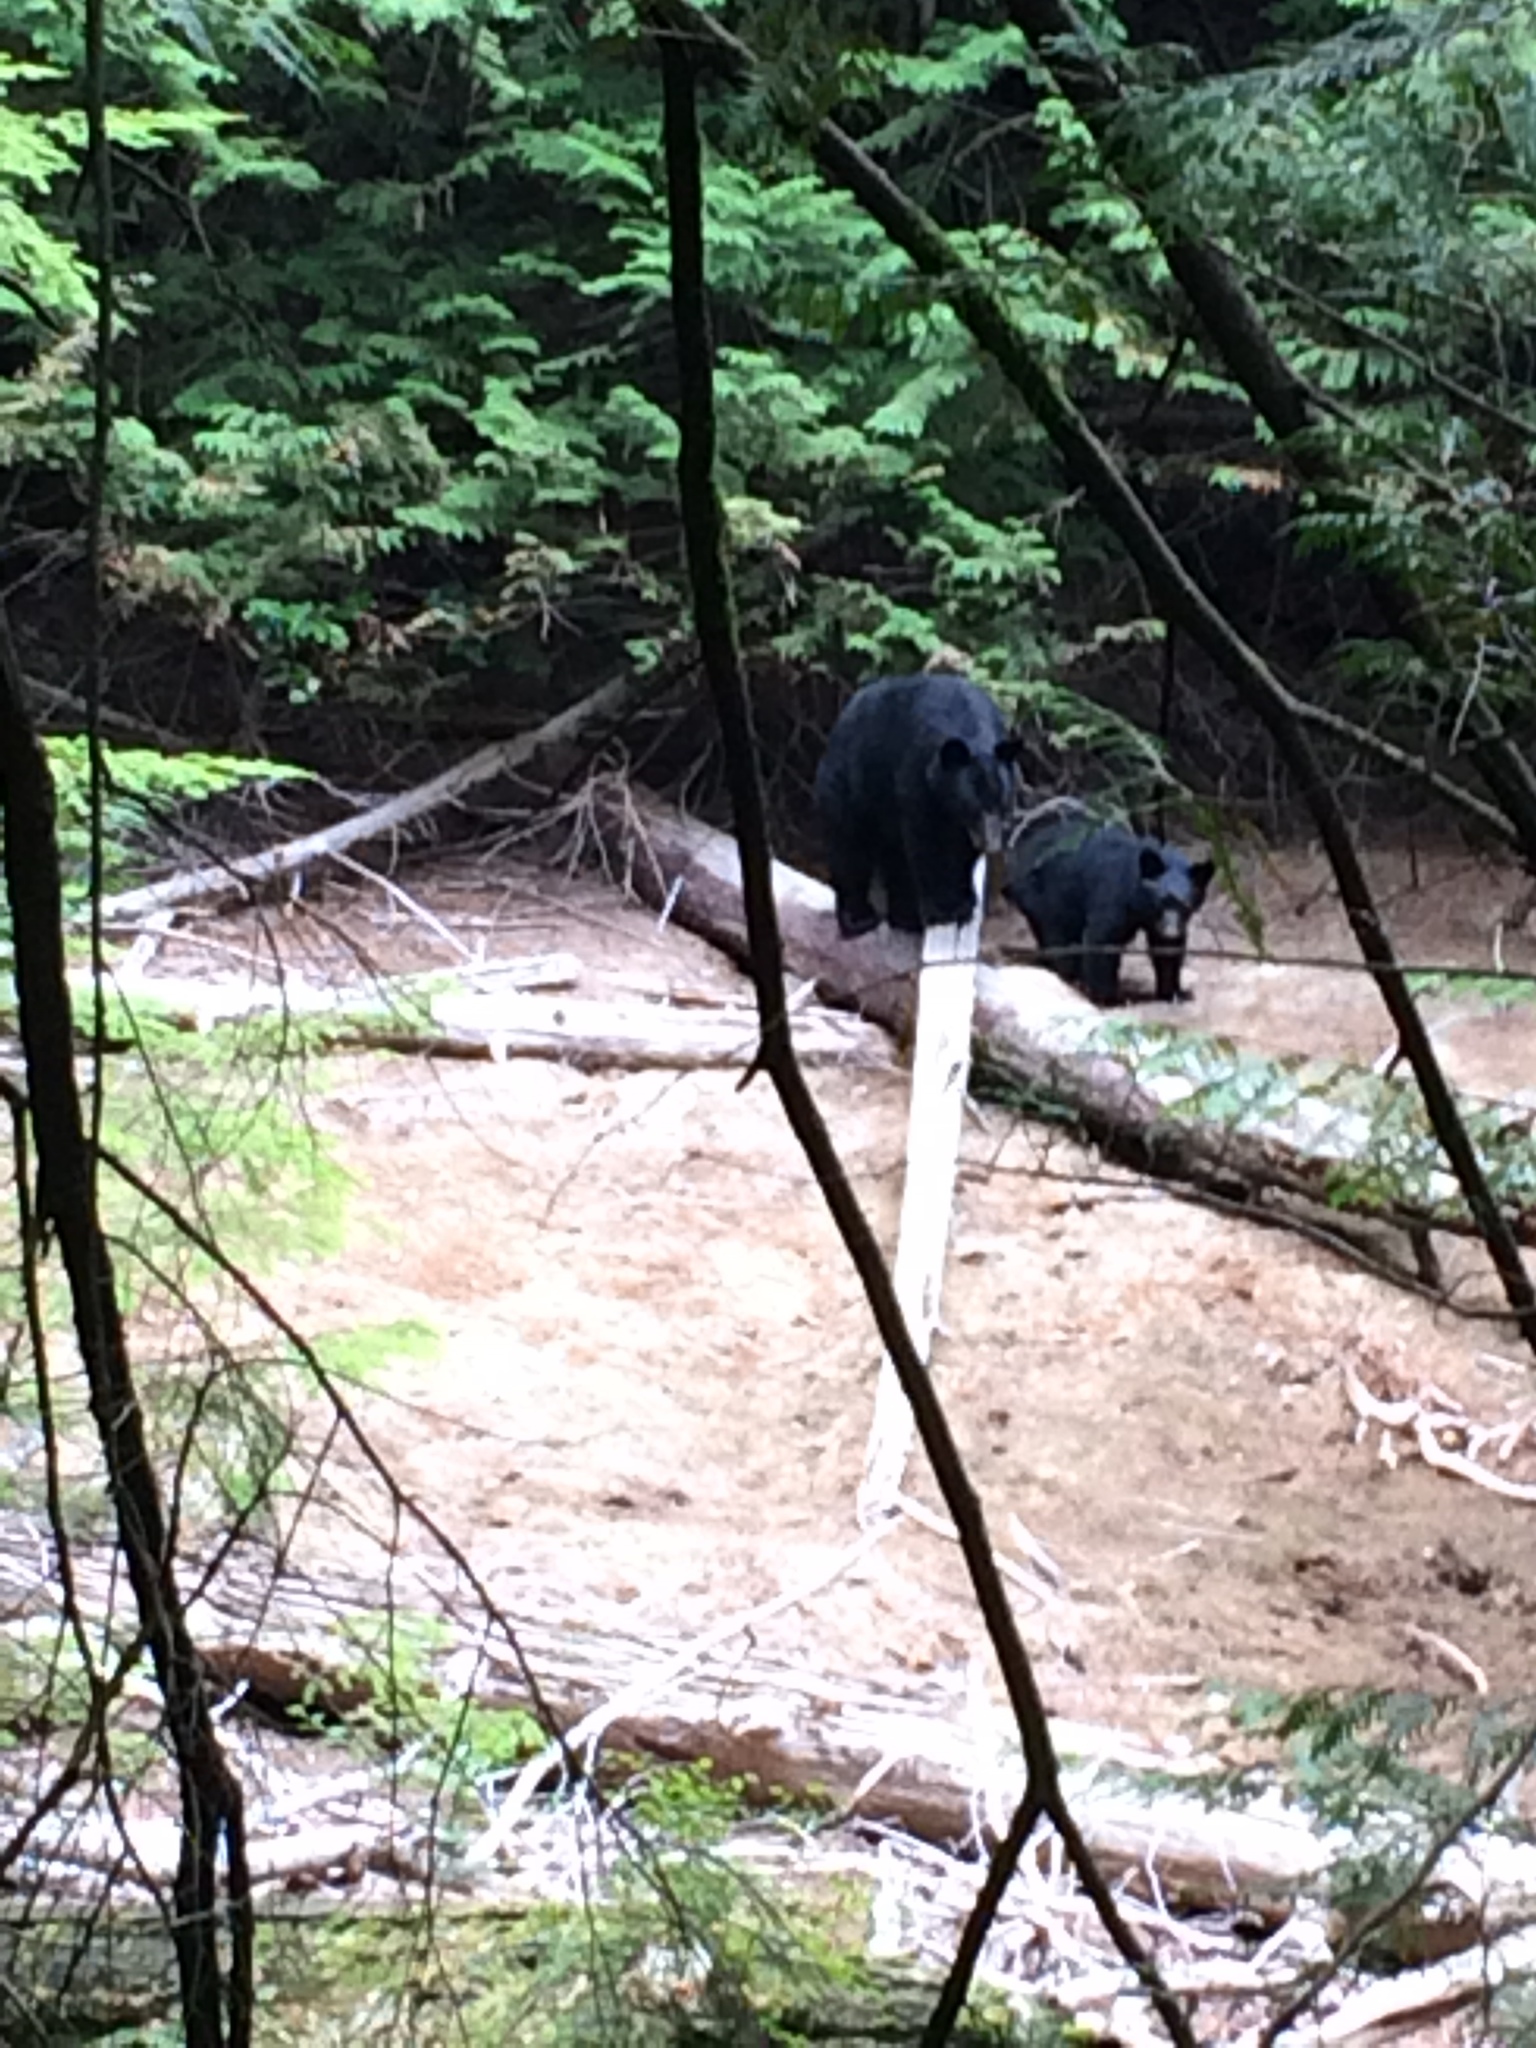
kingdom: Animalia
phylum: Chordata
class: Mammalia
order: Carnivora
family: Ursidae
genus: Ursus
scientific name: Ursus americanus
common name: American black bear
